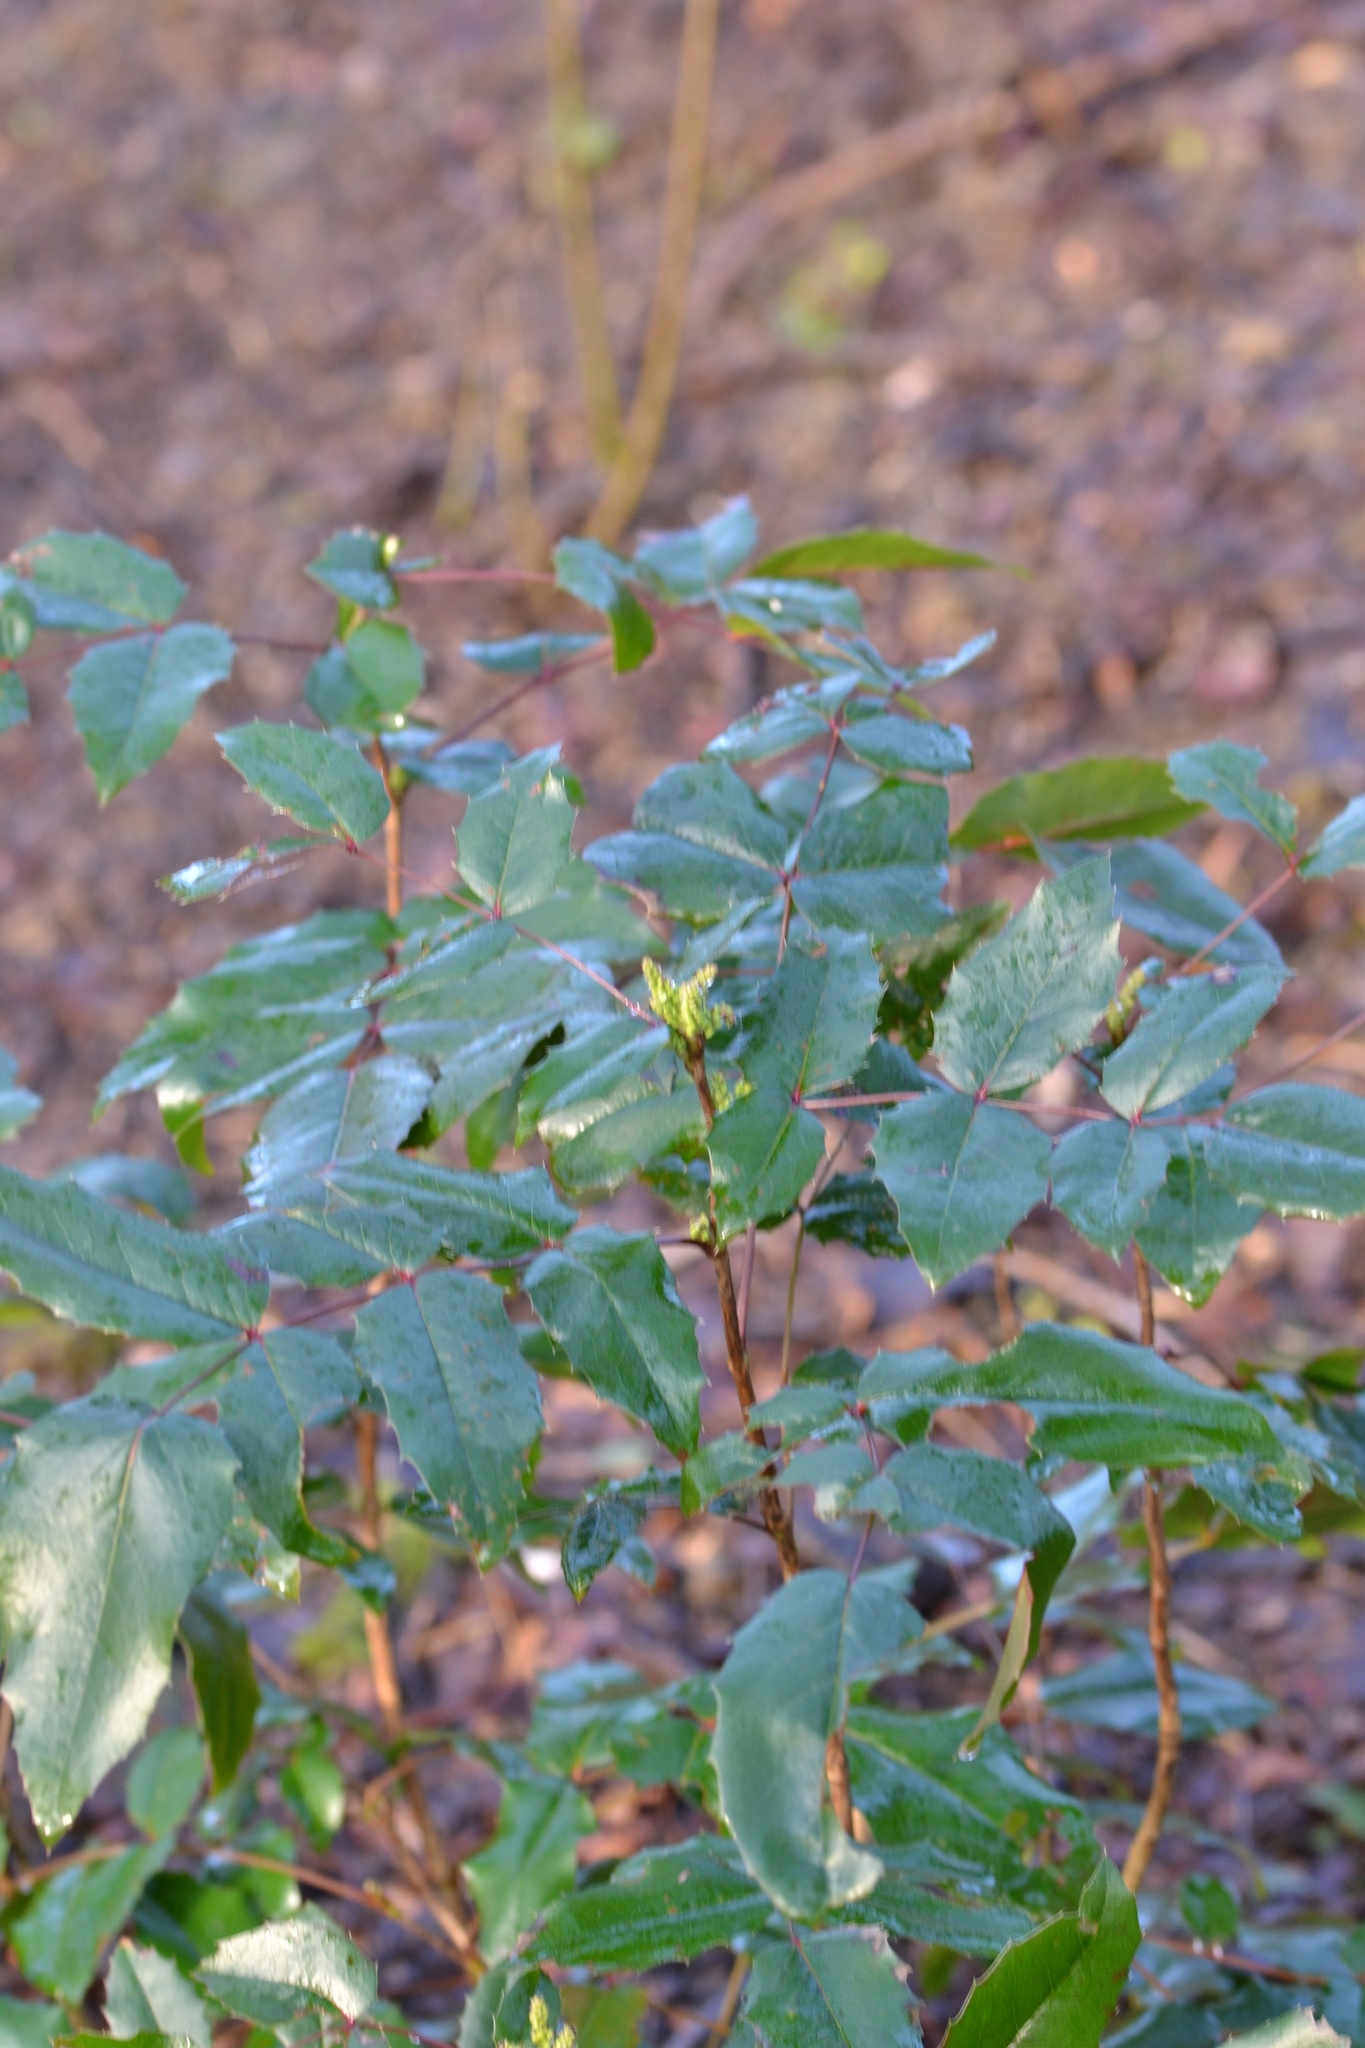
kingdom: Plantae
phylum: Tracheophyta
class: Magnoliopsida
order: Ranunculales
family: Berberidaceae
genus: Mahonia
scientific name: Mahonia aquifolium
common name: Oregon-grape
